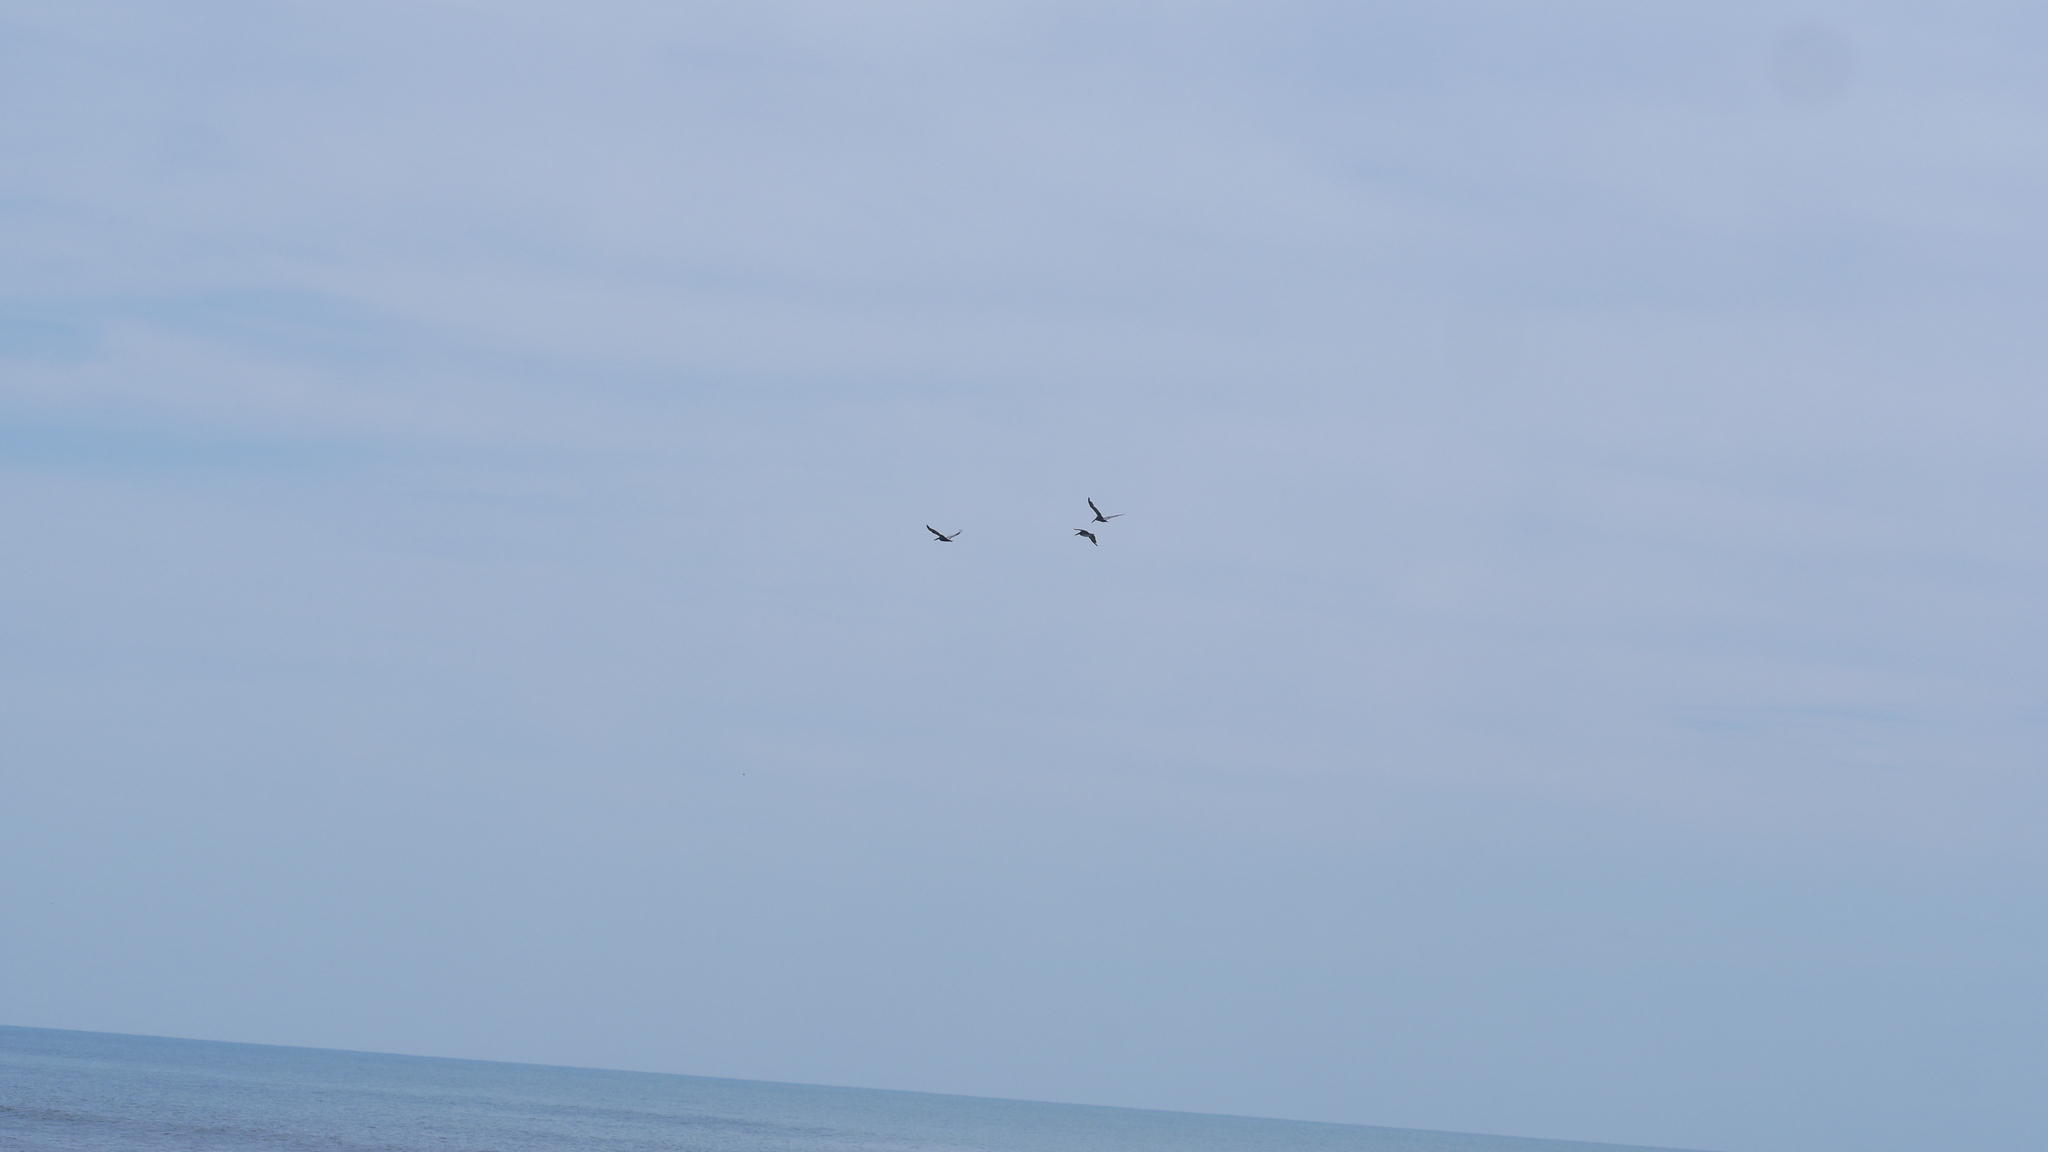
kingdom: Animalia
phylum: Chordata
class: Aves
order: Pelecaniformes
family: Pelecanidae
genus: Pelecanus
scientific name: Pelecanus occidentalis
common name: Brown pelican
